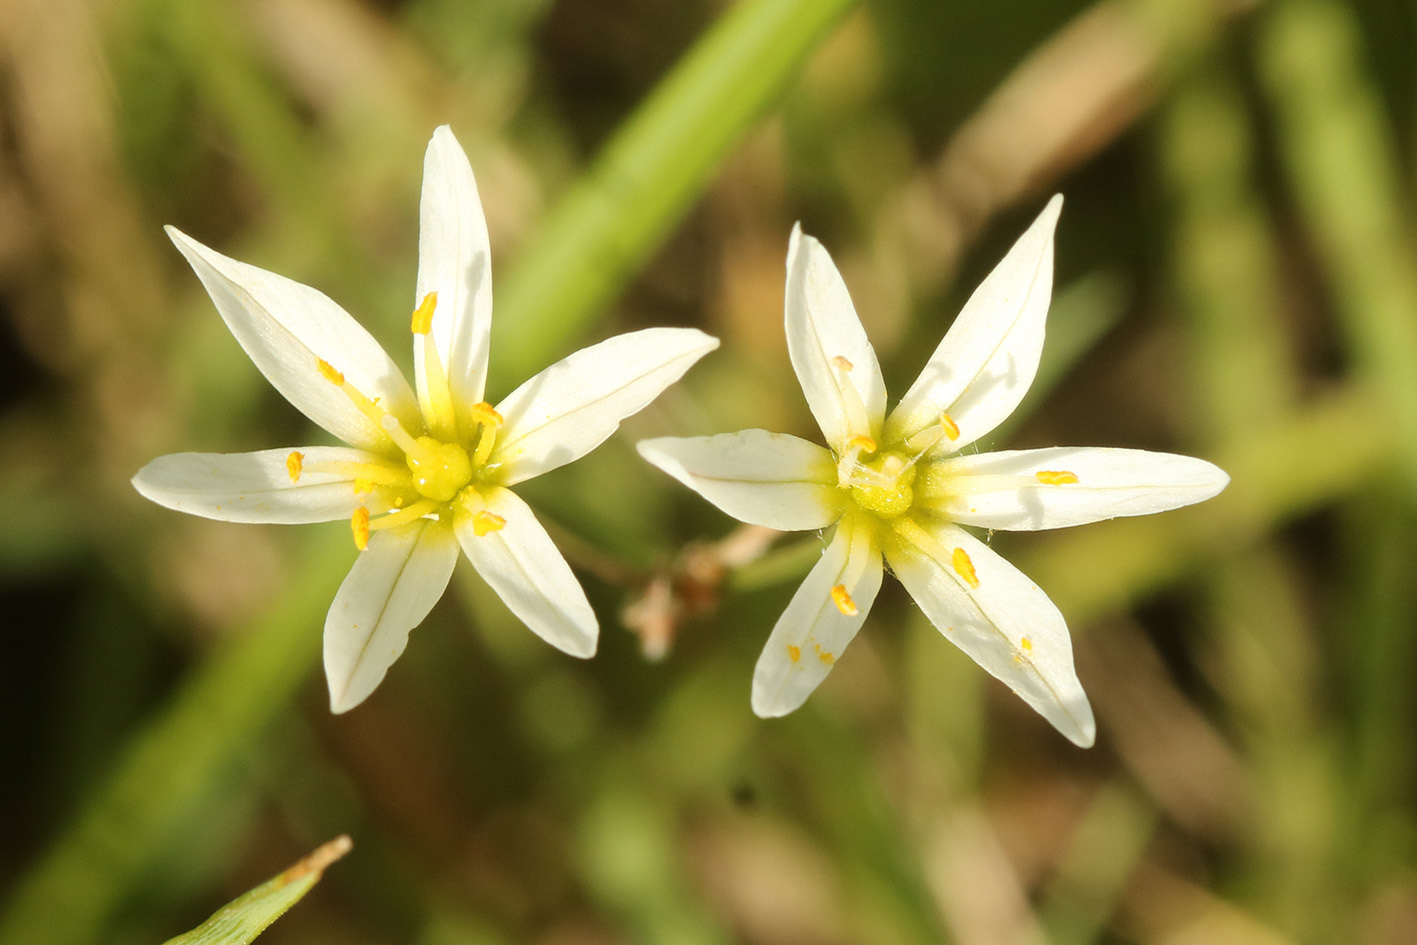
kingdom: Plantae
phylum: Tracheophyta
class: Liliopsida
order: Asparagales
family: Amaryllidaceae
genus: Nothoscordum
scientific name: Nothoscordum bonariense
